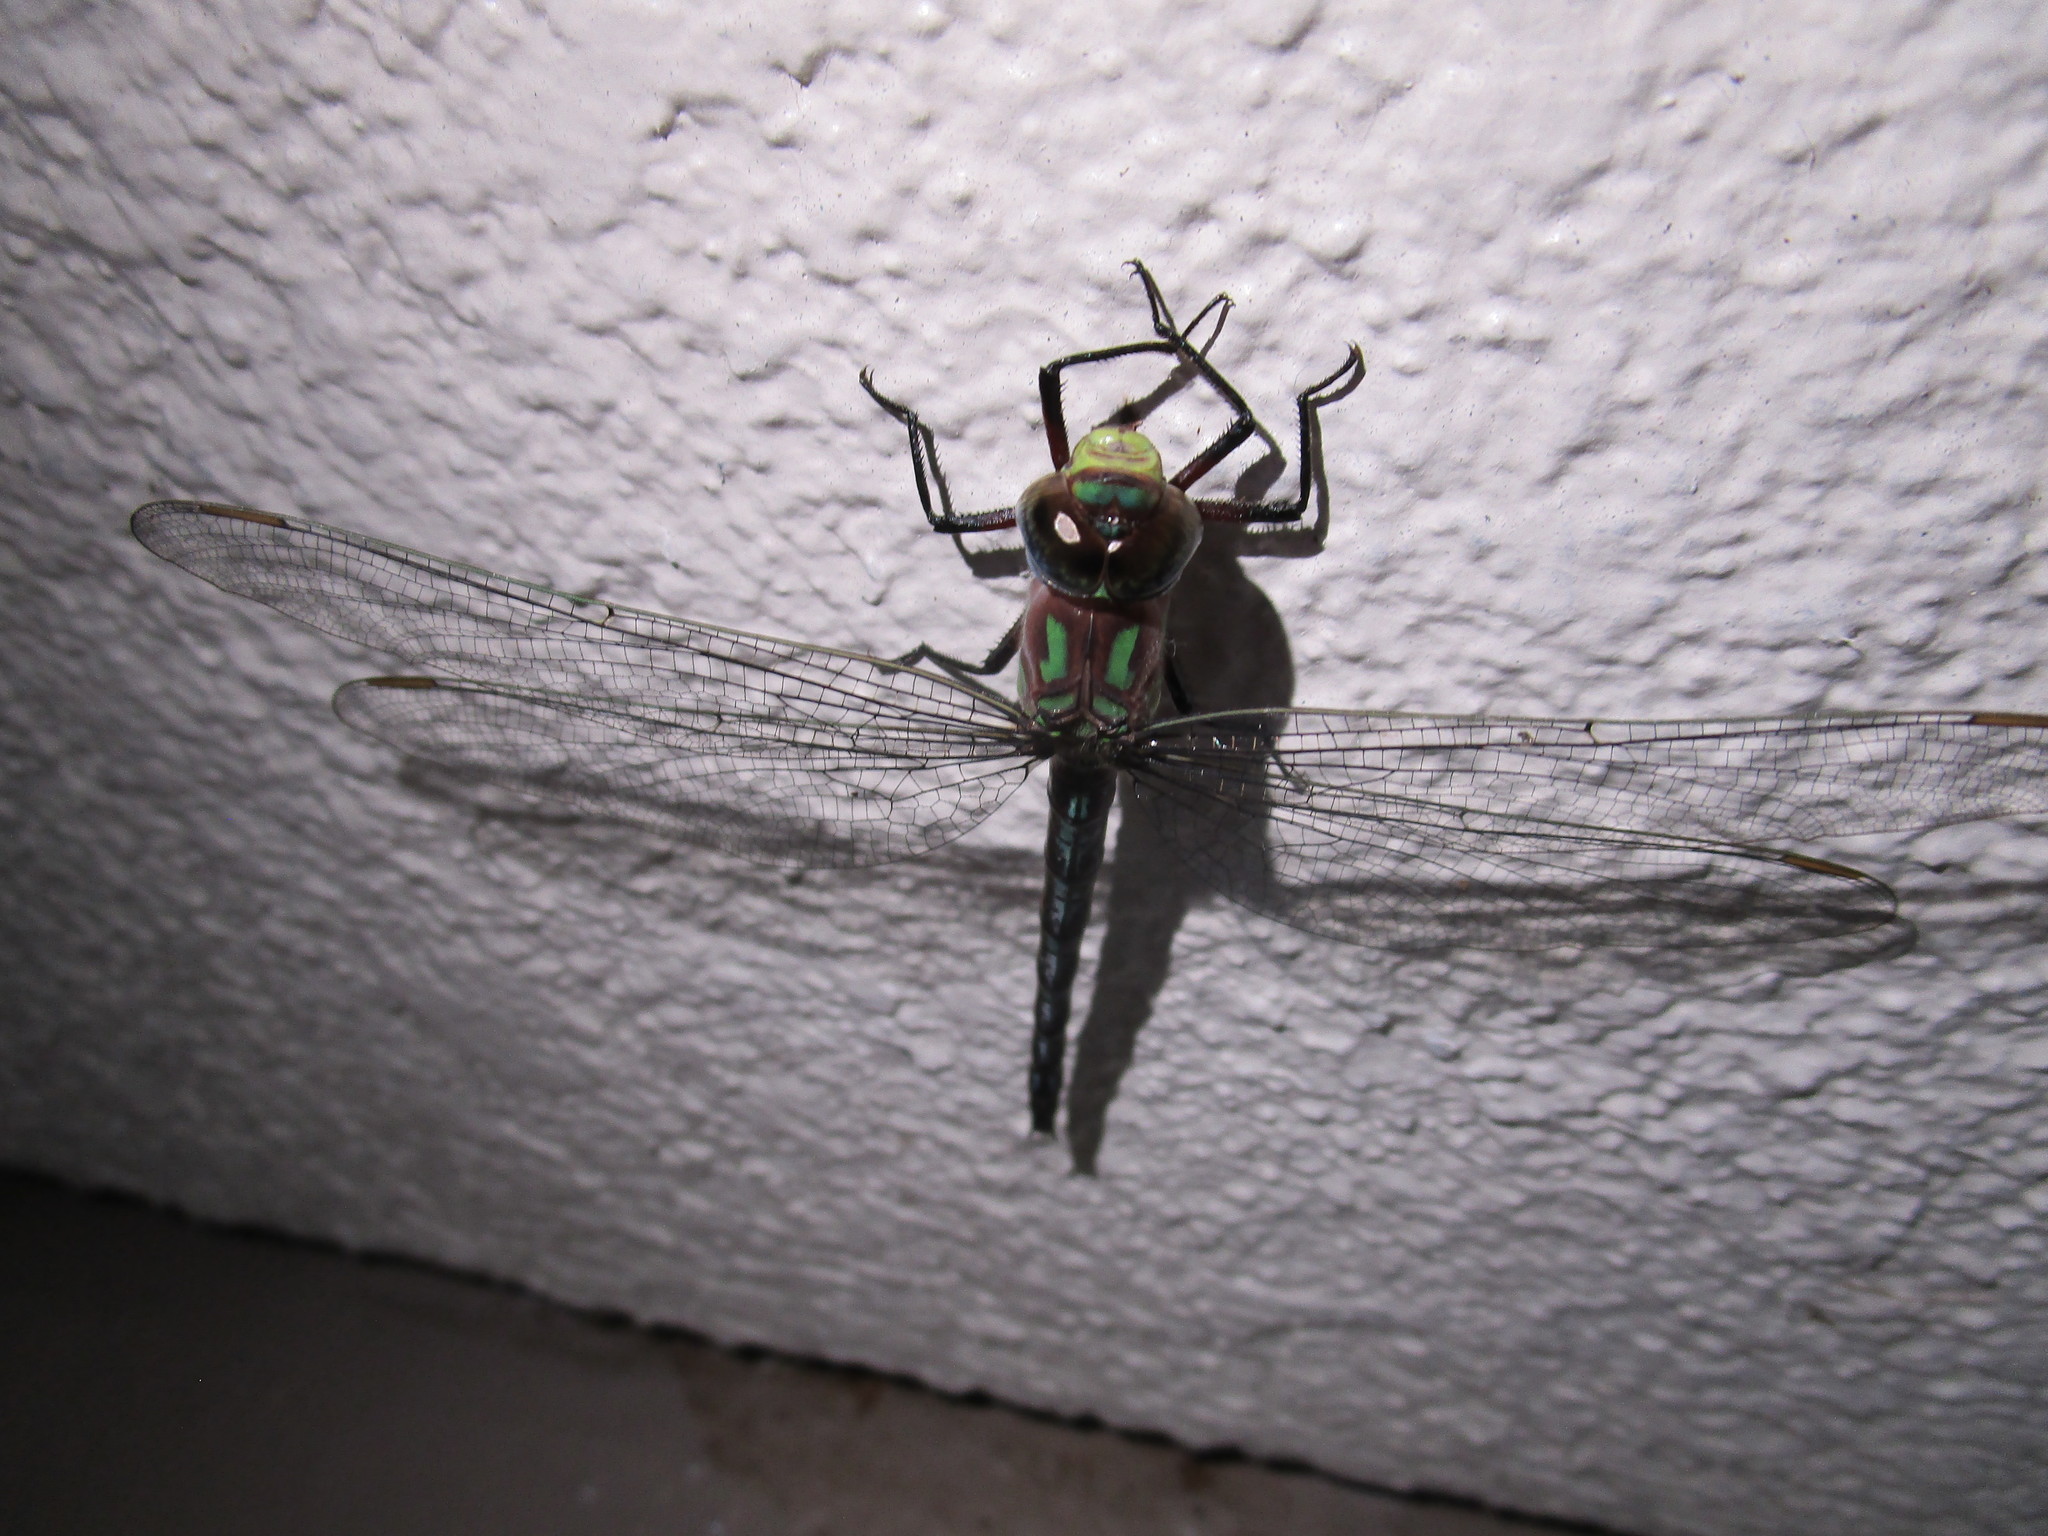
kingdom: Animalia
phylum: Arthropoda
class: Insecta
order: Odonata
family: Aeshnidae
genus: Nasiaeschna
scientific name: Nasiaeschna pentacantha
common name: Cyrano darner
